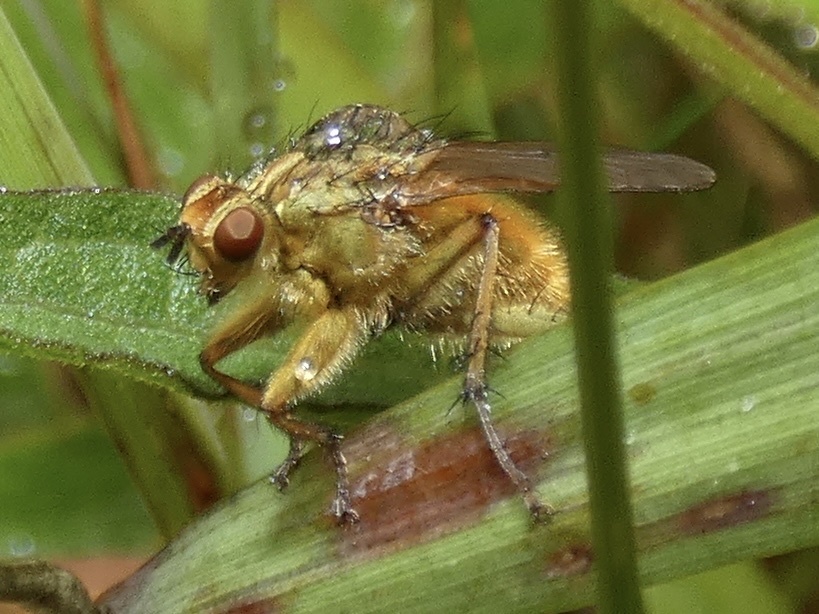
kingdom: Animalia
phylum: Arthropoda
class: Insecta
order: Diptera
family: Scathophagidae
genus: Scathophaga
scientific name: Scathophaga stercoraria
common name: Yellow dung fly
